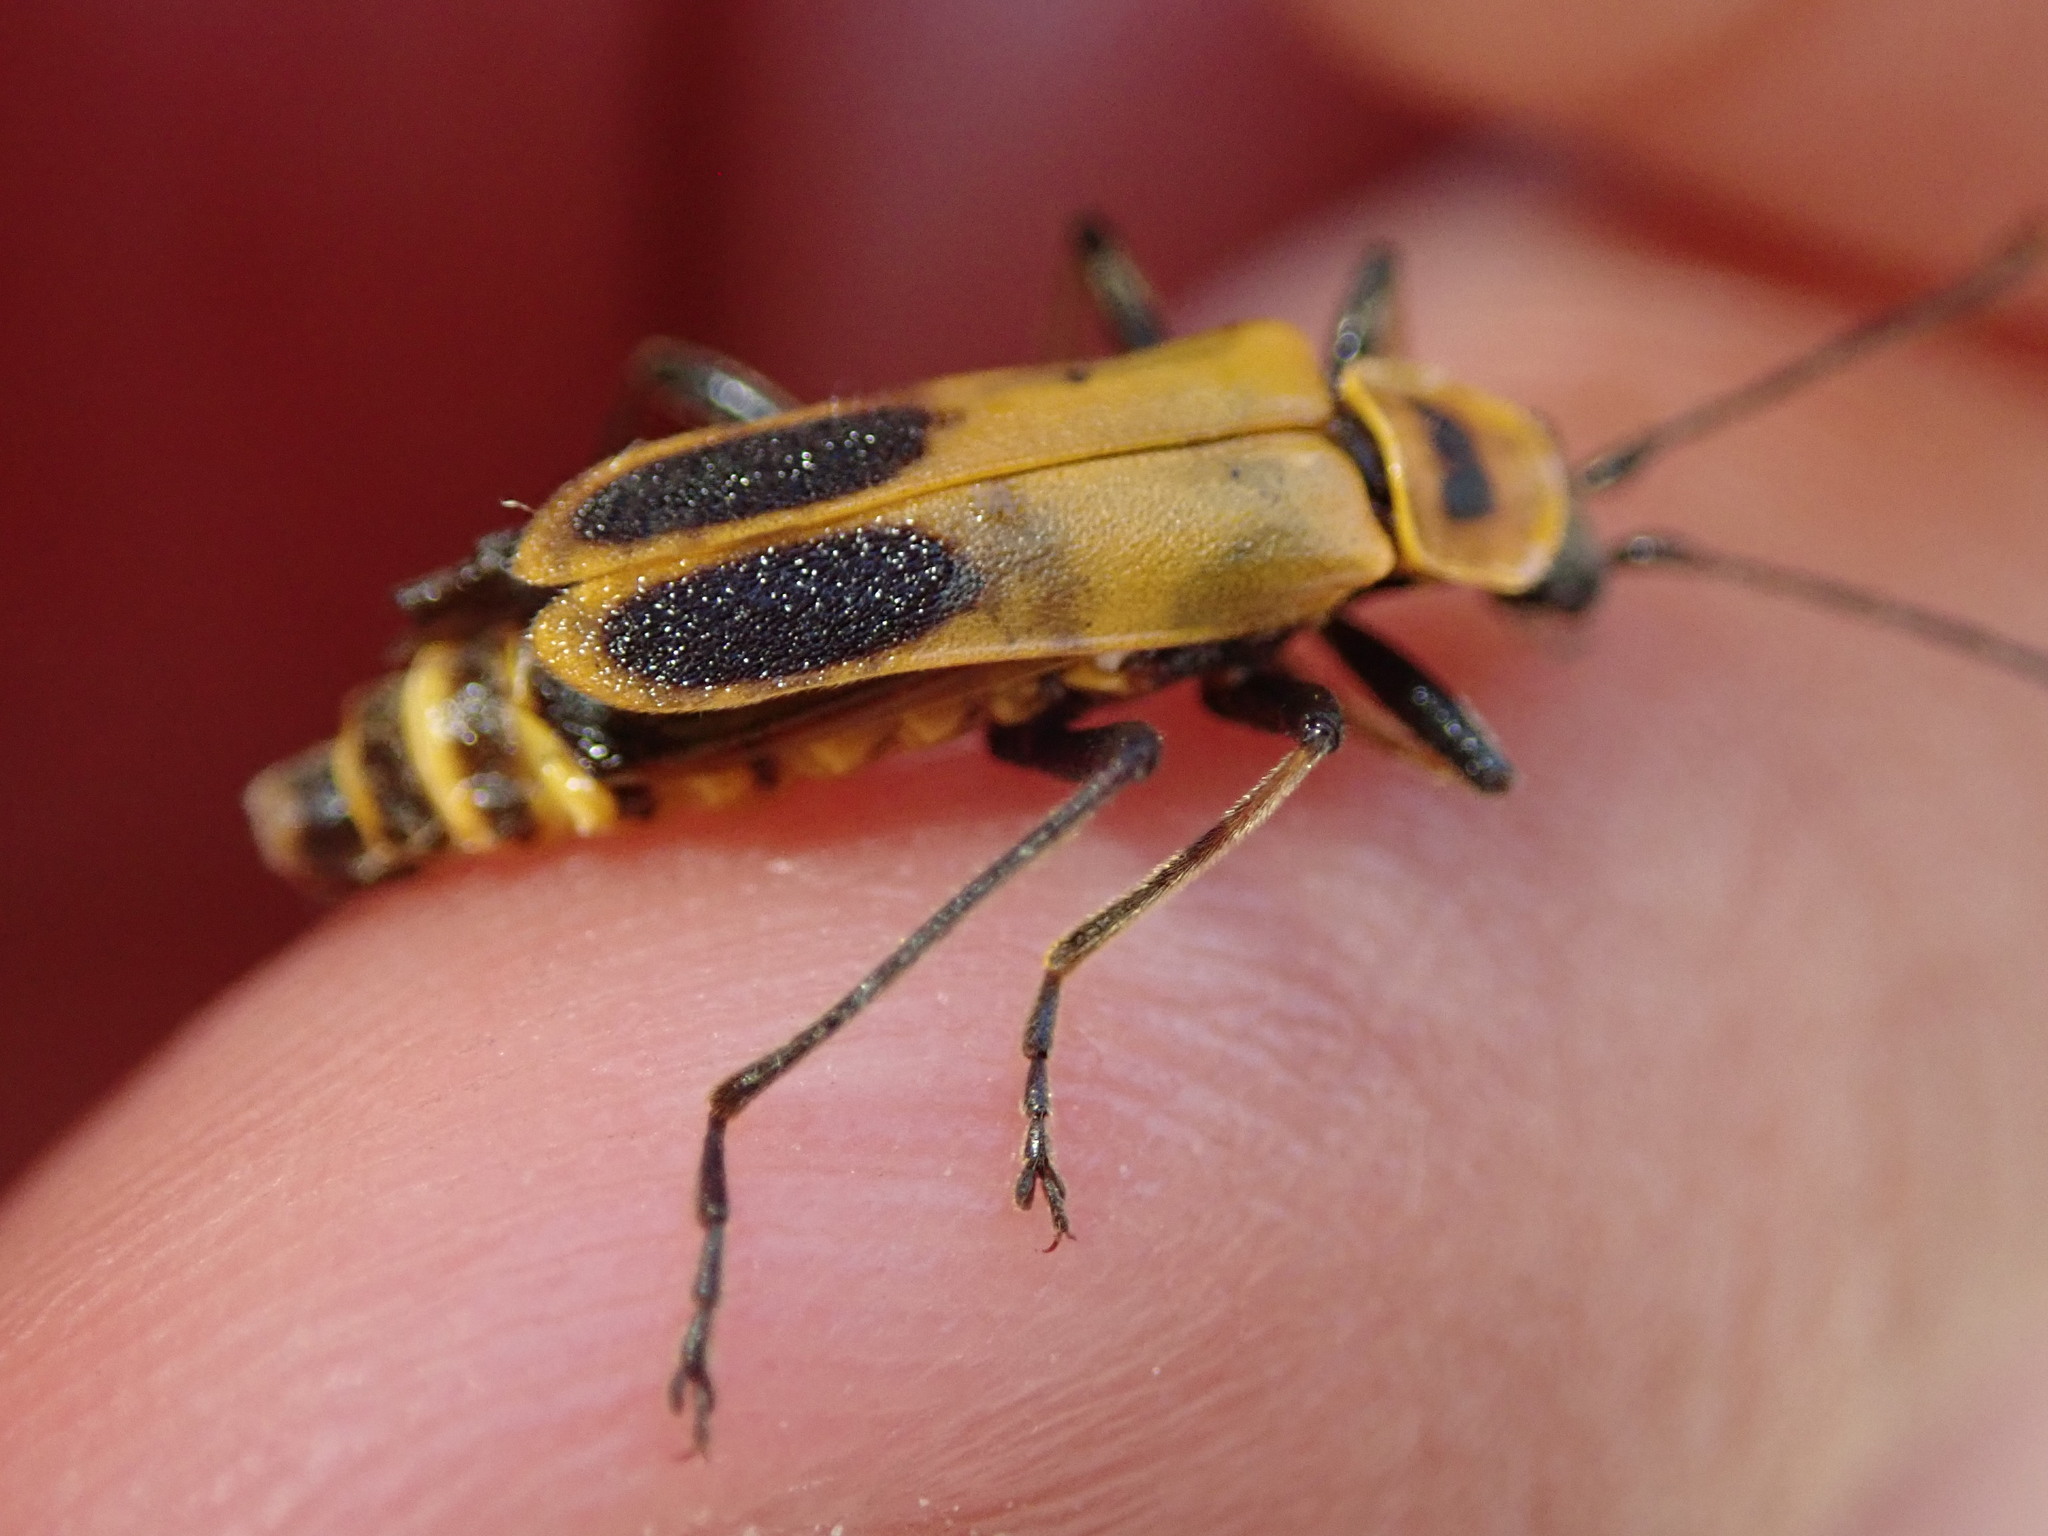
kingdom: Animalia
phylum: Arthropoda
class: Insecta
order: Coleoptera
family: Cantharidae
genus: Chauliognathus
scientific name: Chauliognathus pensylvanicus
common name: Goldenrod soldier beetle
